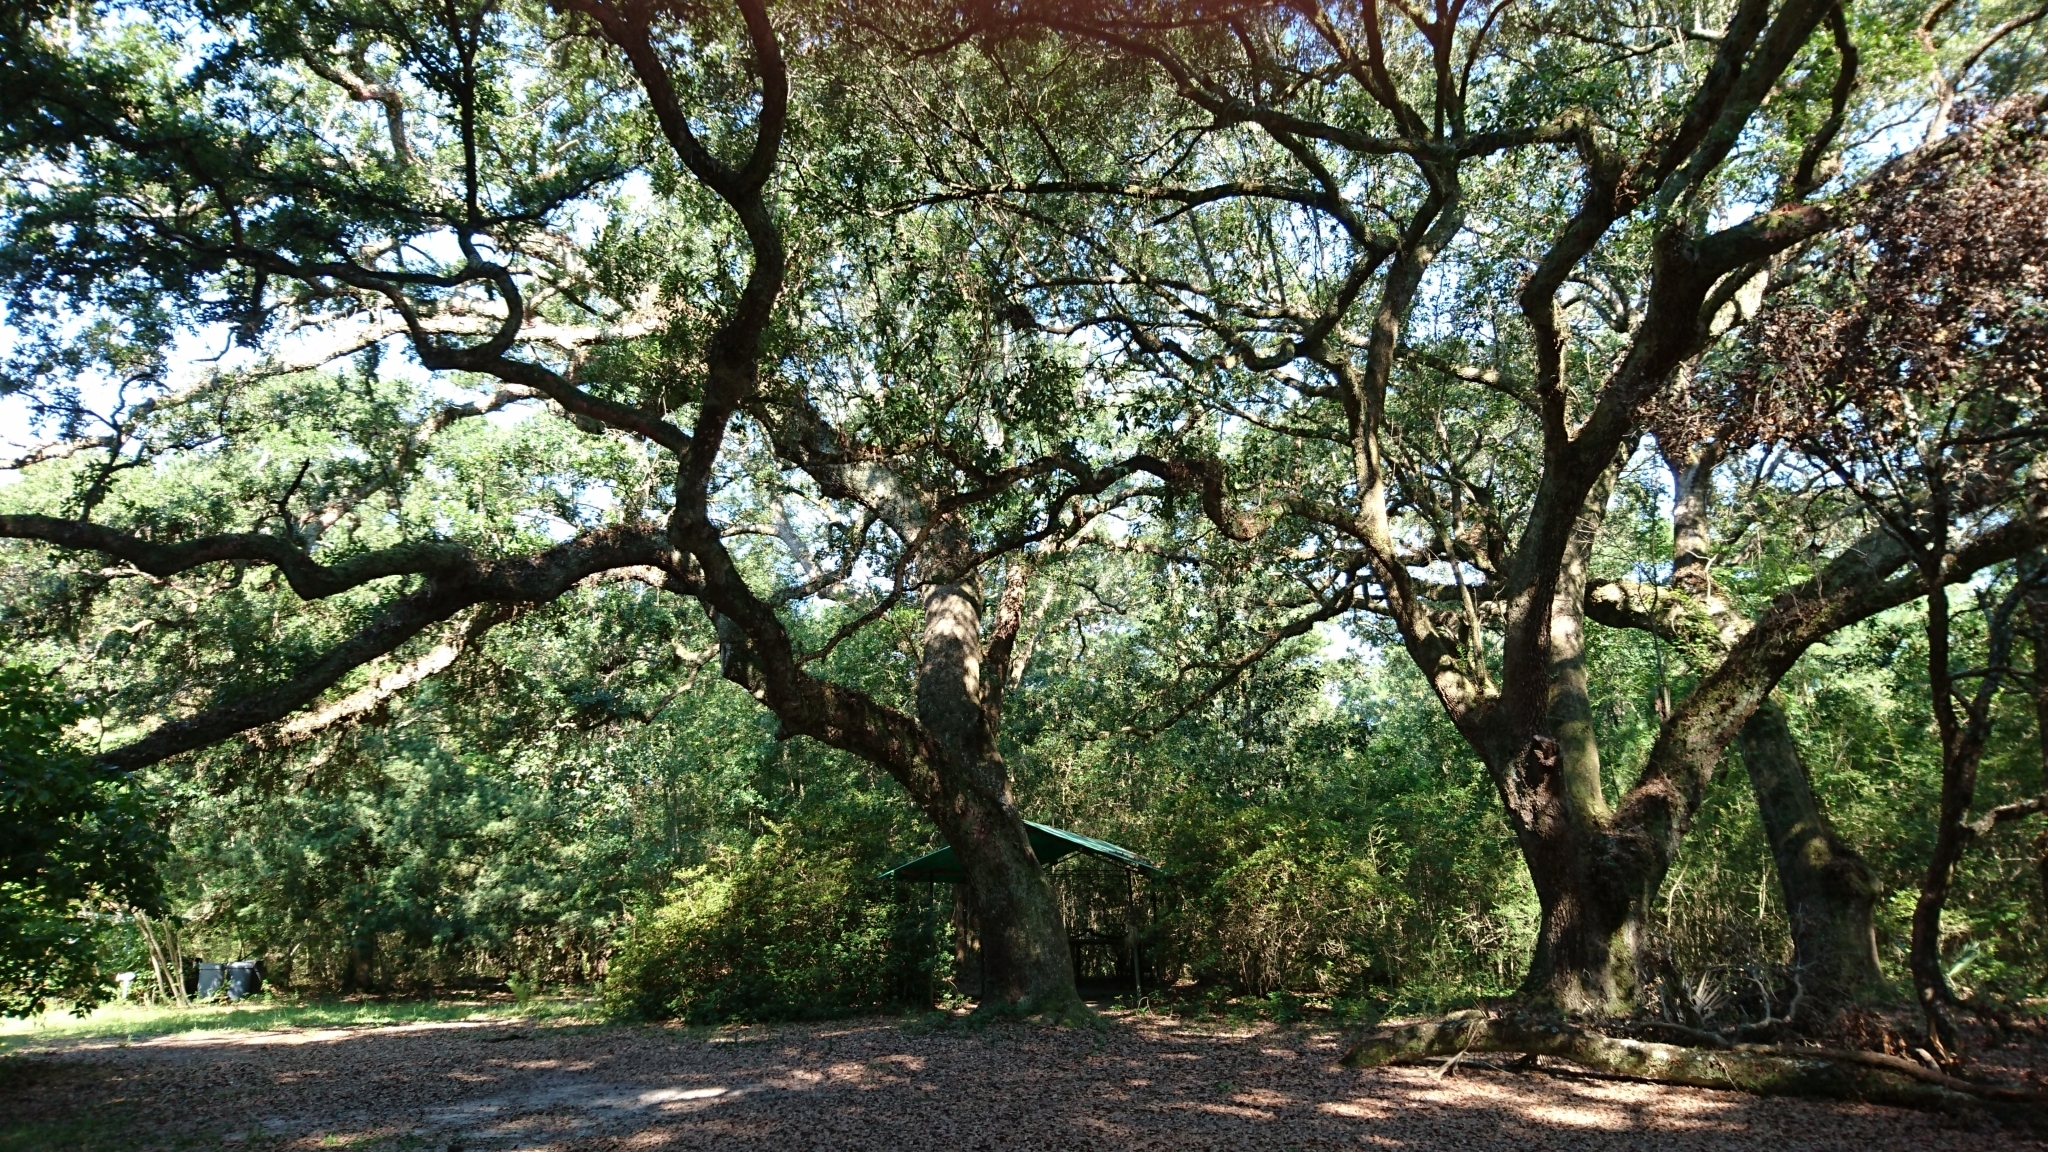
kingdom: Plantae
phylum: Tracheophyta
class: Magnoliopsida
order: Fagales
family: Fagaceae
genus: Quercus
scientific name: Quercus virginiana
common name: Southern live oak
